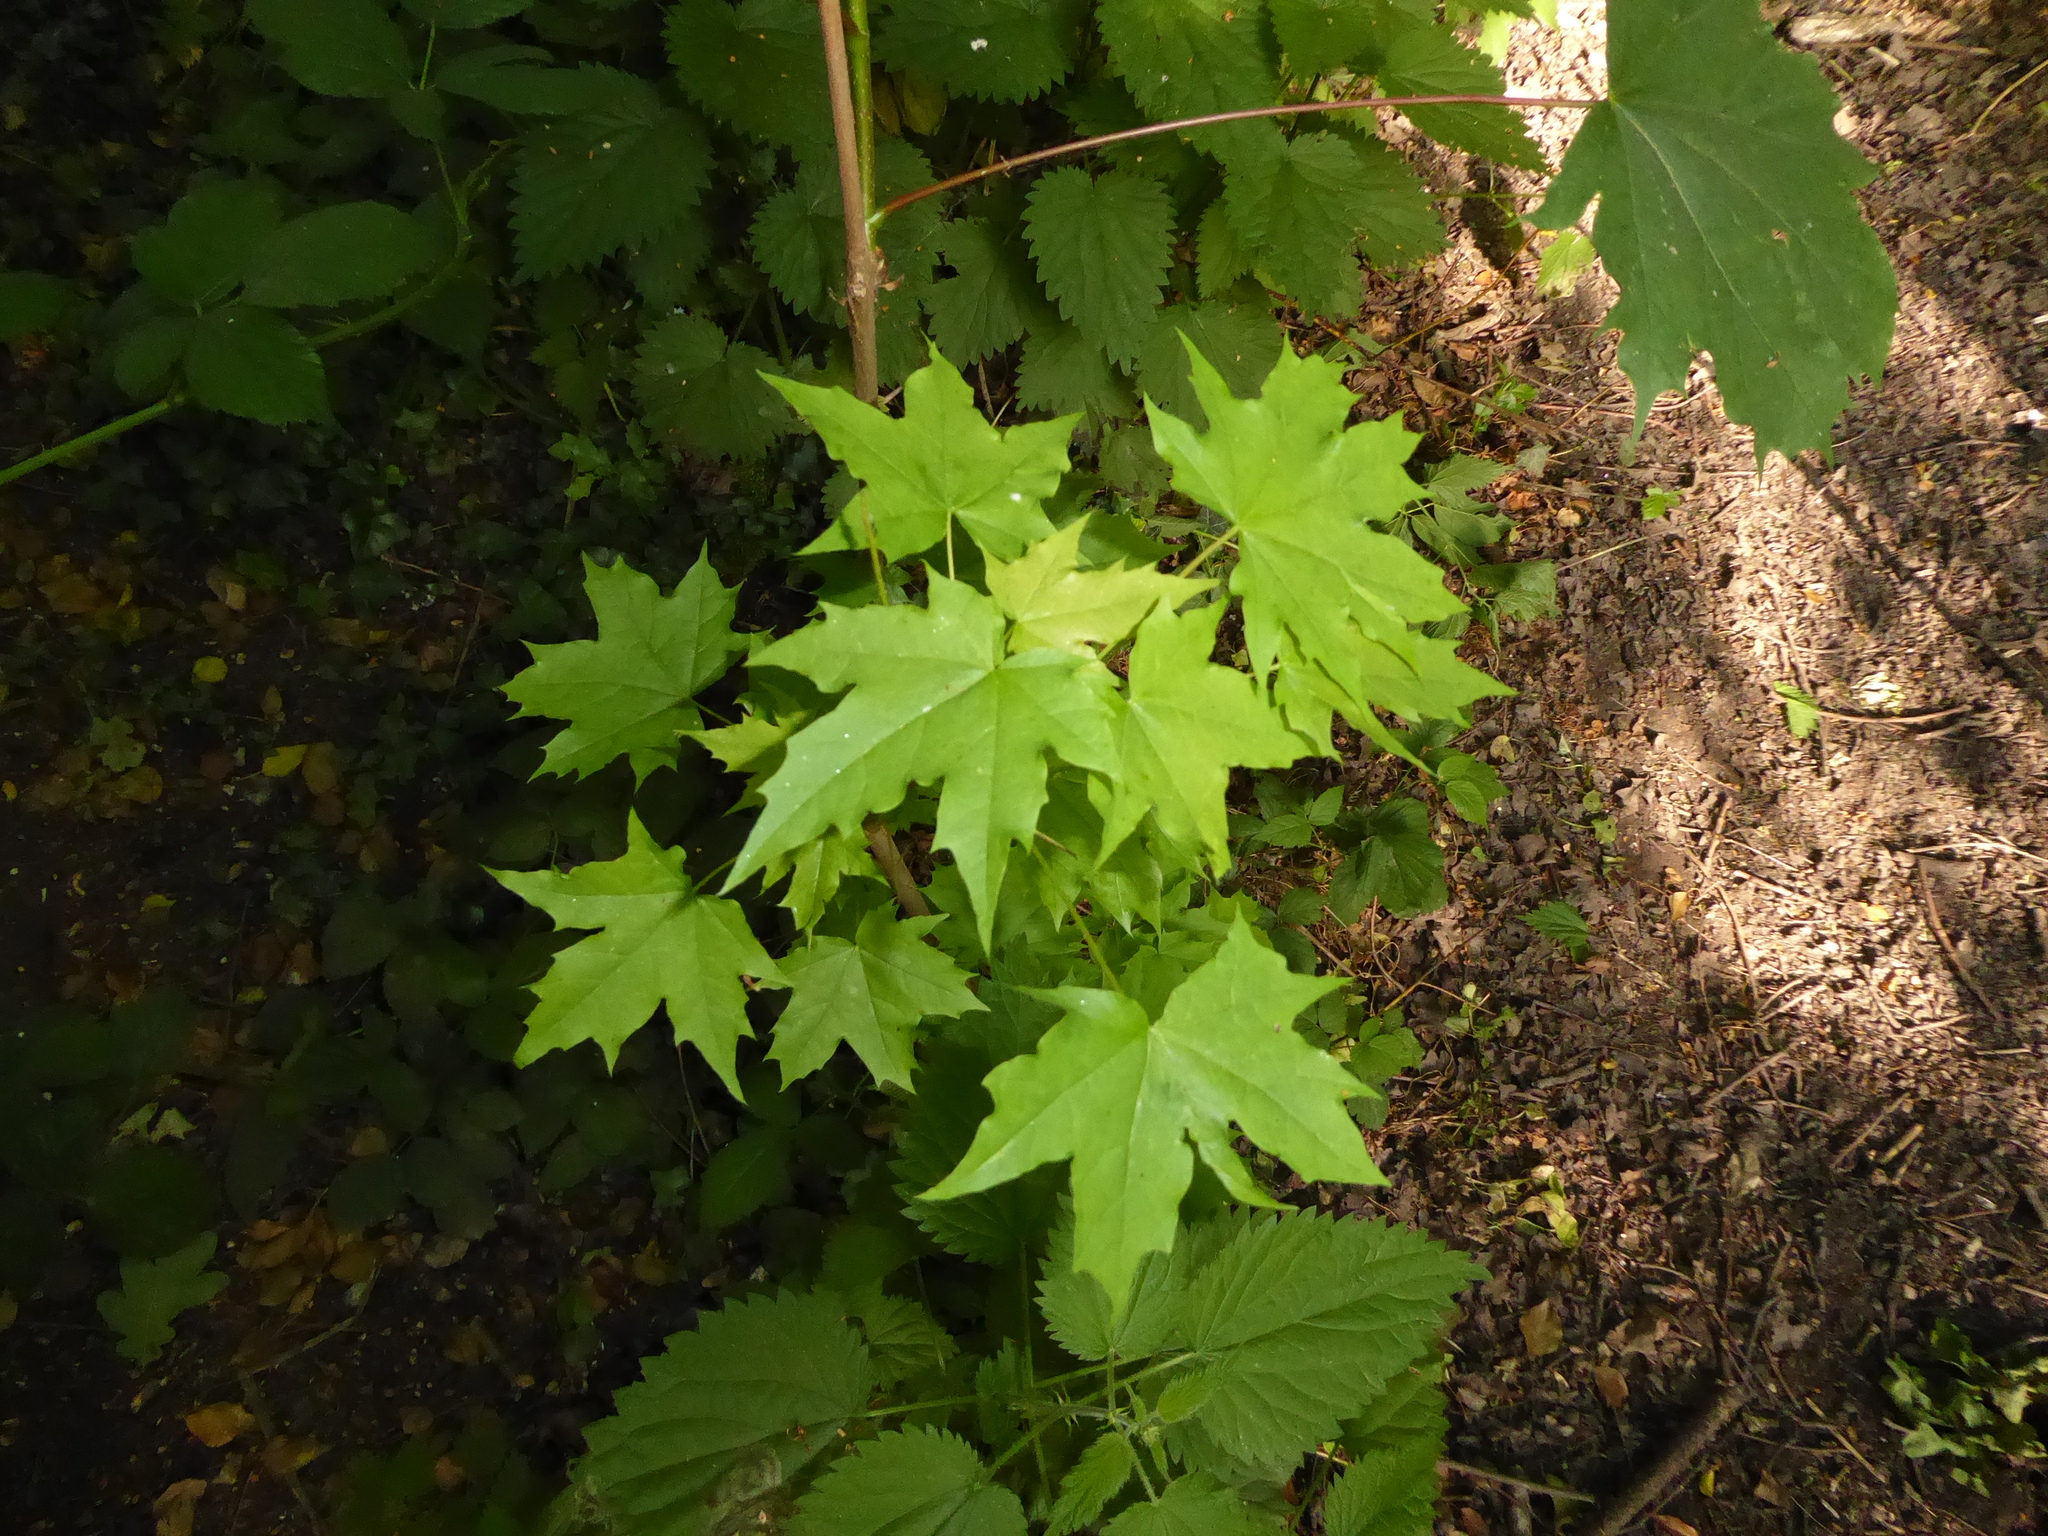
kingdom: Plantae
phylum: Tracheophyta
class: Magnoliopsida
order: Sapindales
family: Sapindaceae
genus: Acer
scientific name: Acer platanoides
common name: Norway maple
